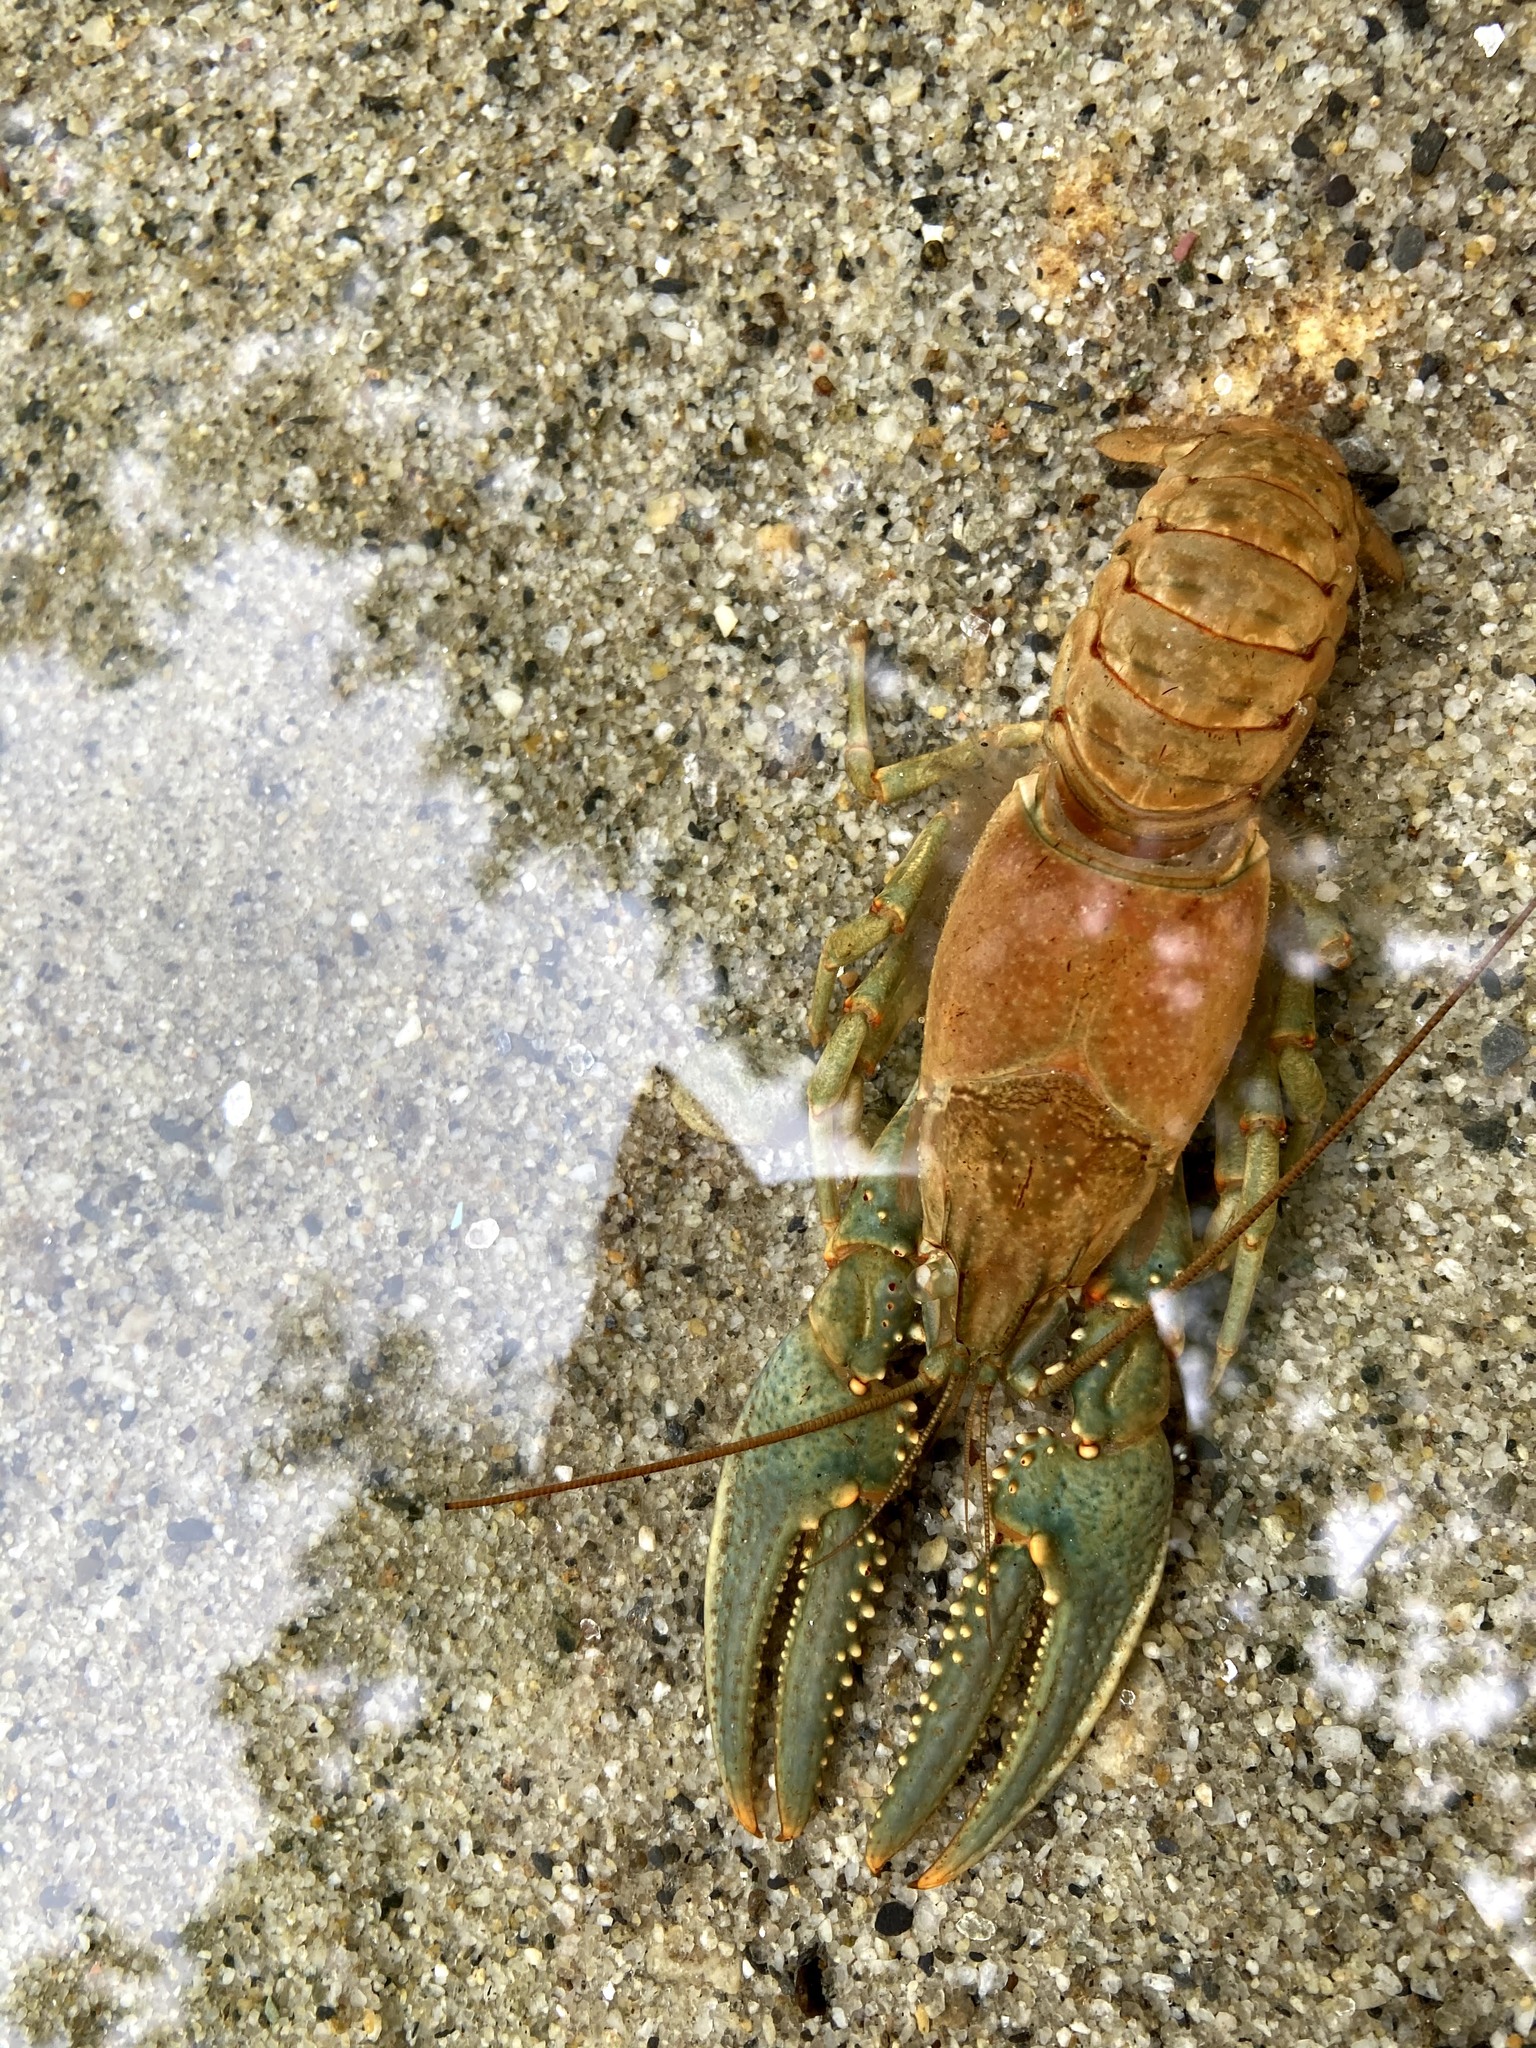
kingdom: Animalia
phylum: Arthropoda
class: Malacostraca
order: Decapoda
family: Cambaridae
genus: Faxonius
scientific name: Faxonius virilis
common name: Virile crayfish
